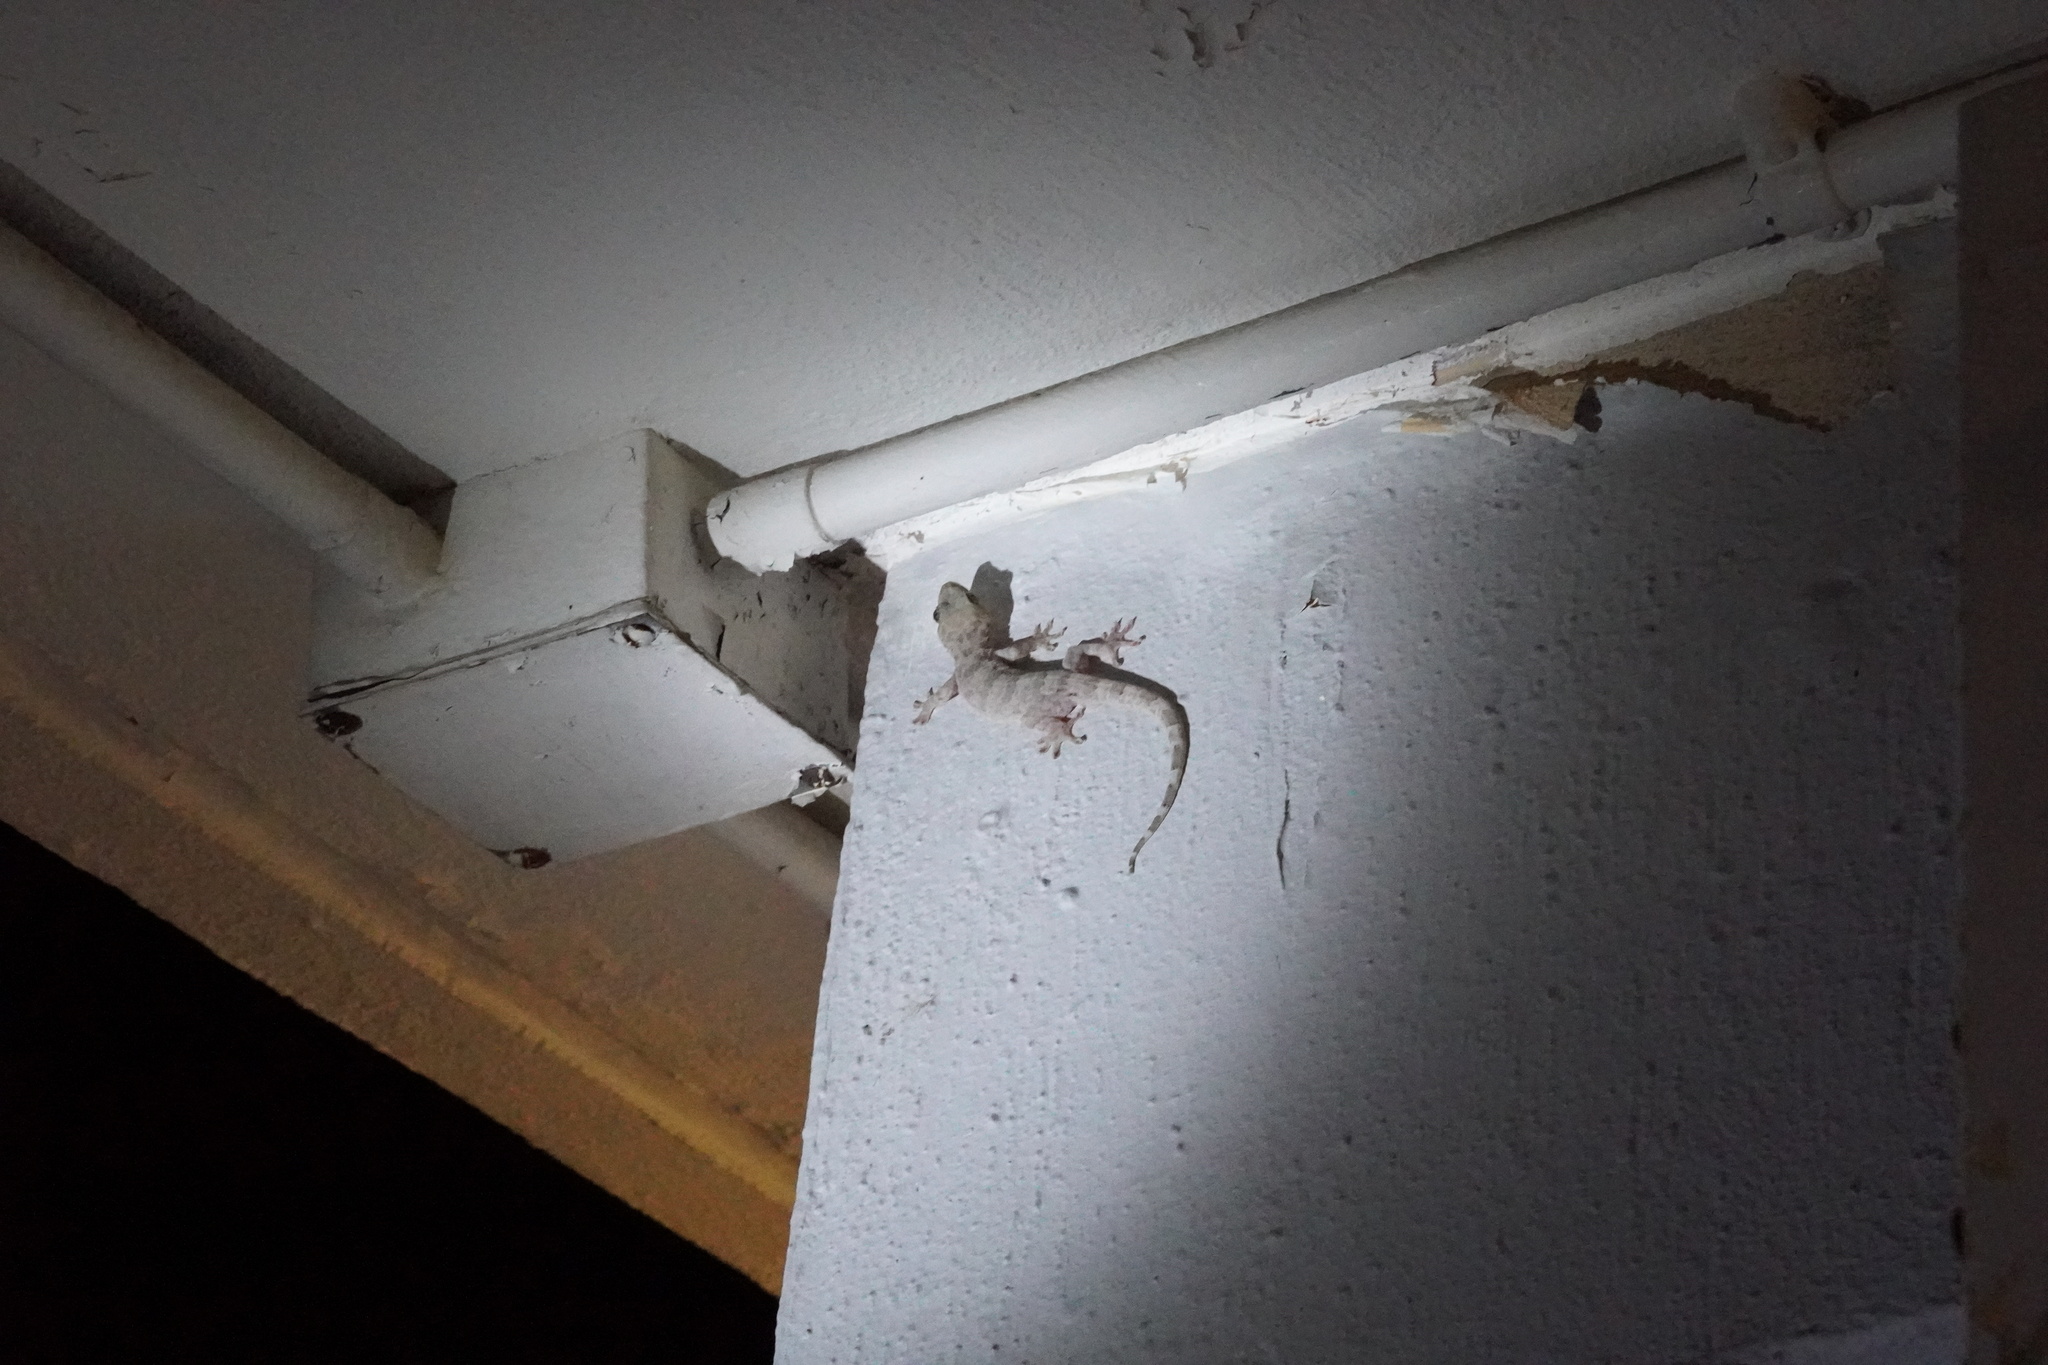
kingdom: Animalia
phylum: Chordata
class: Squamata
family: Gekkonidae
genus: Gekko
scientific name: Gekko chinensis
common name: Gray's chinese gecko
